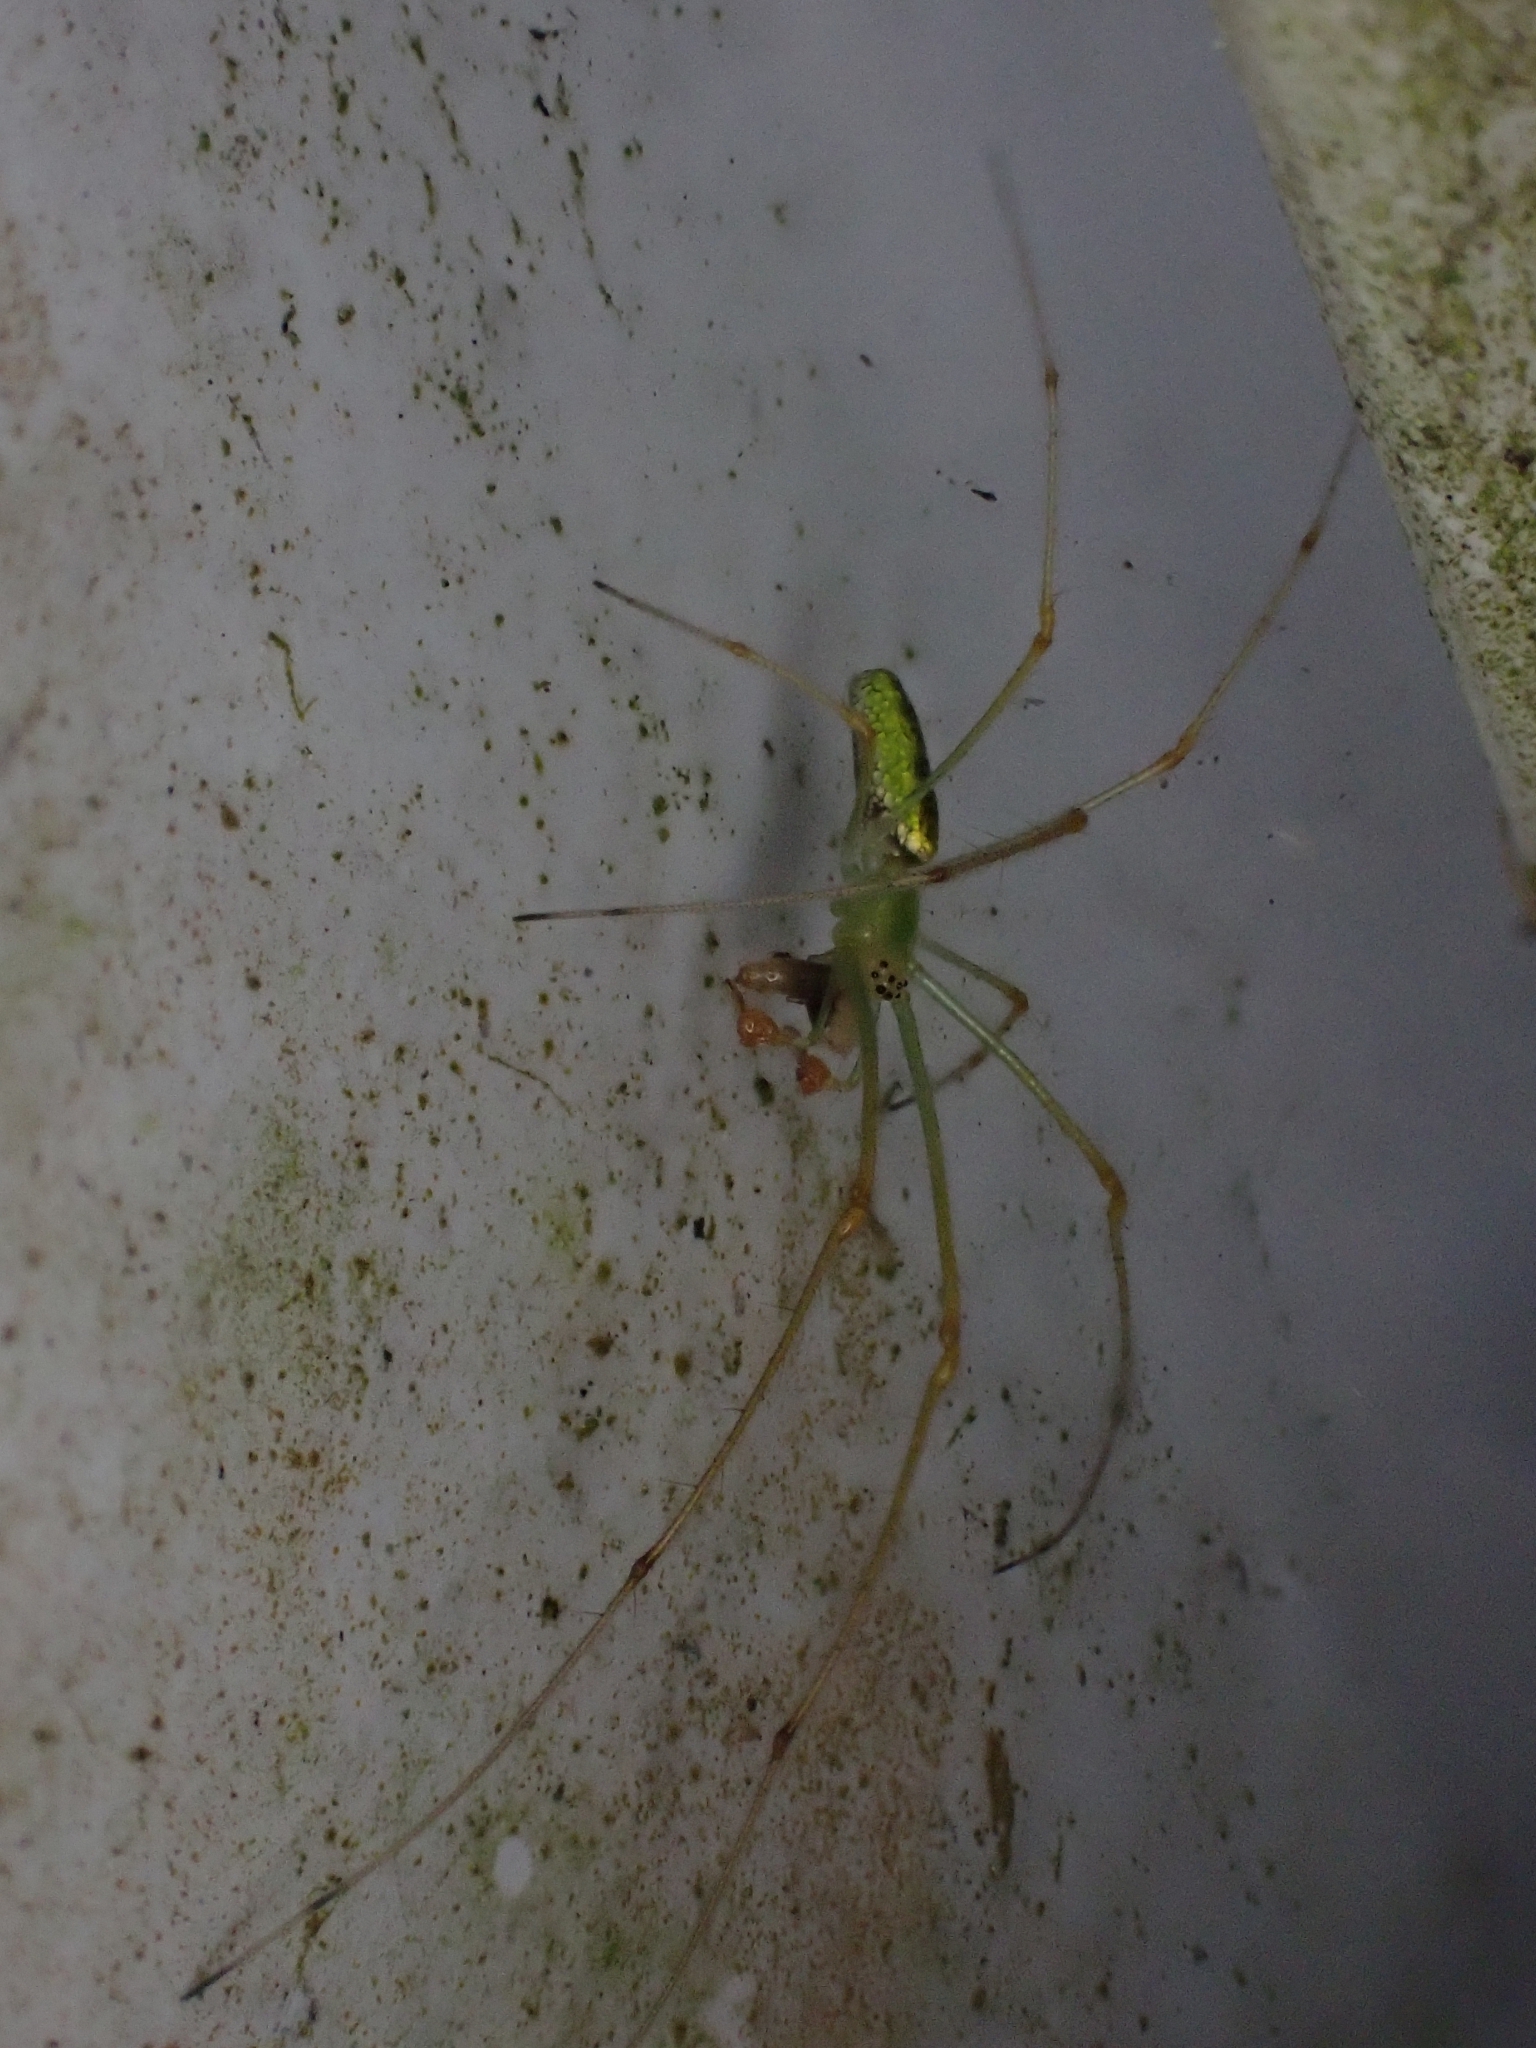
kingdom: Animalia
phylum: Arthropoda
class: Arachnida
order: Araneae
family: Tetragnathidae
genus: Tetragnatha
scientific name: Tetragnatha subsquamata
